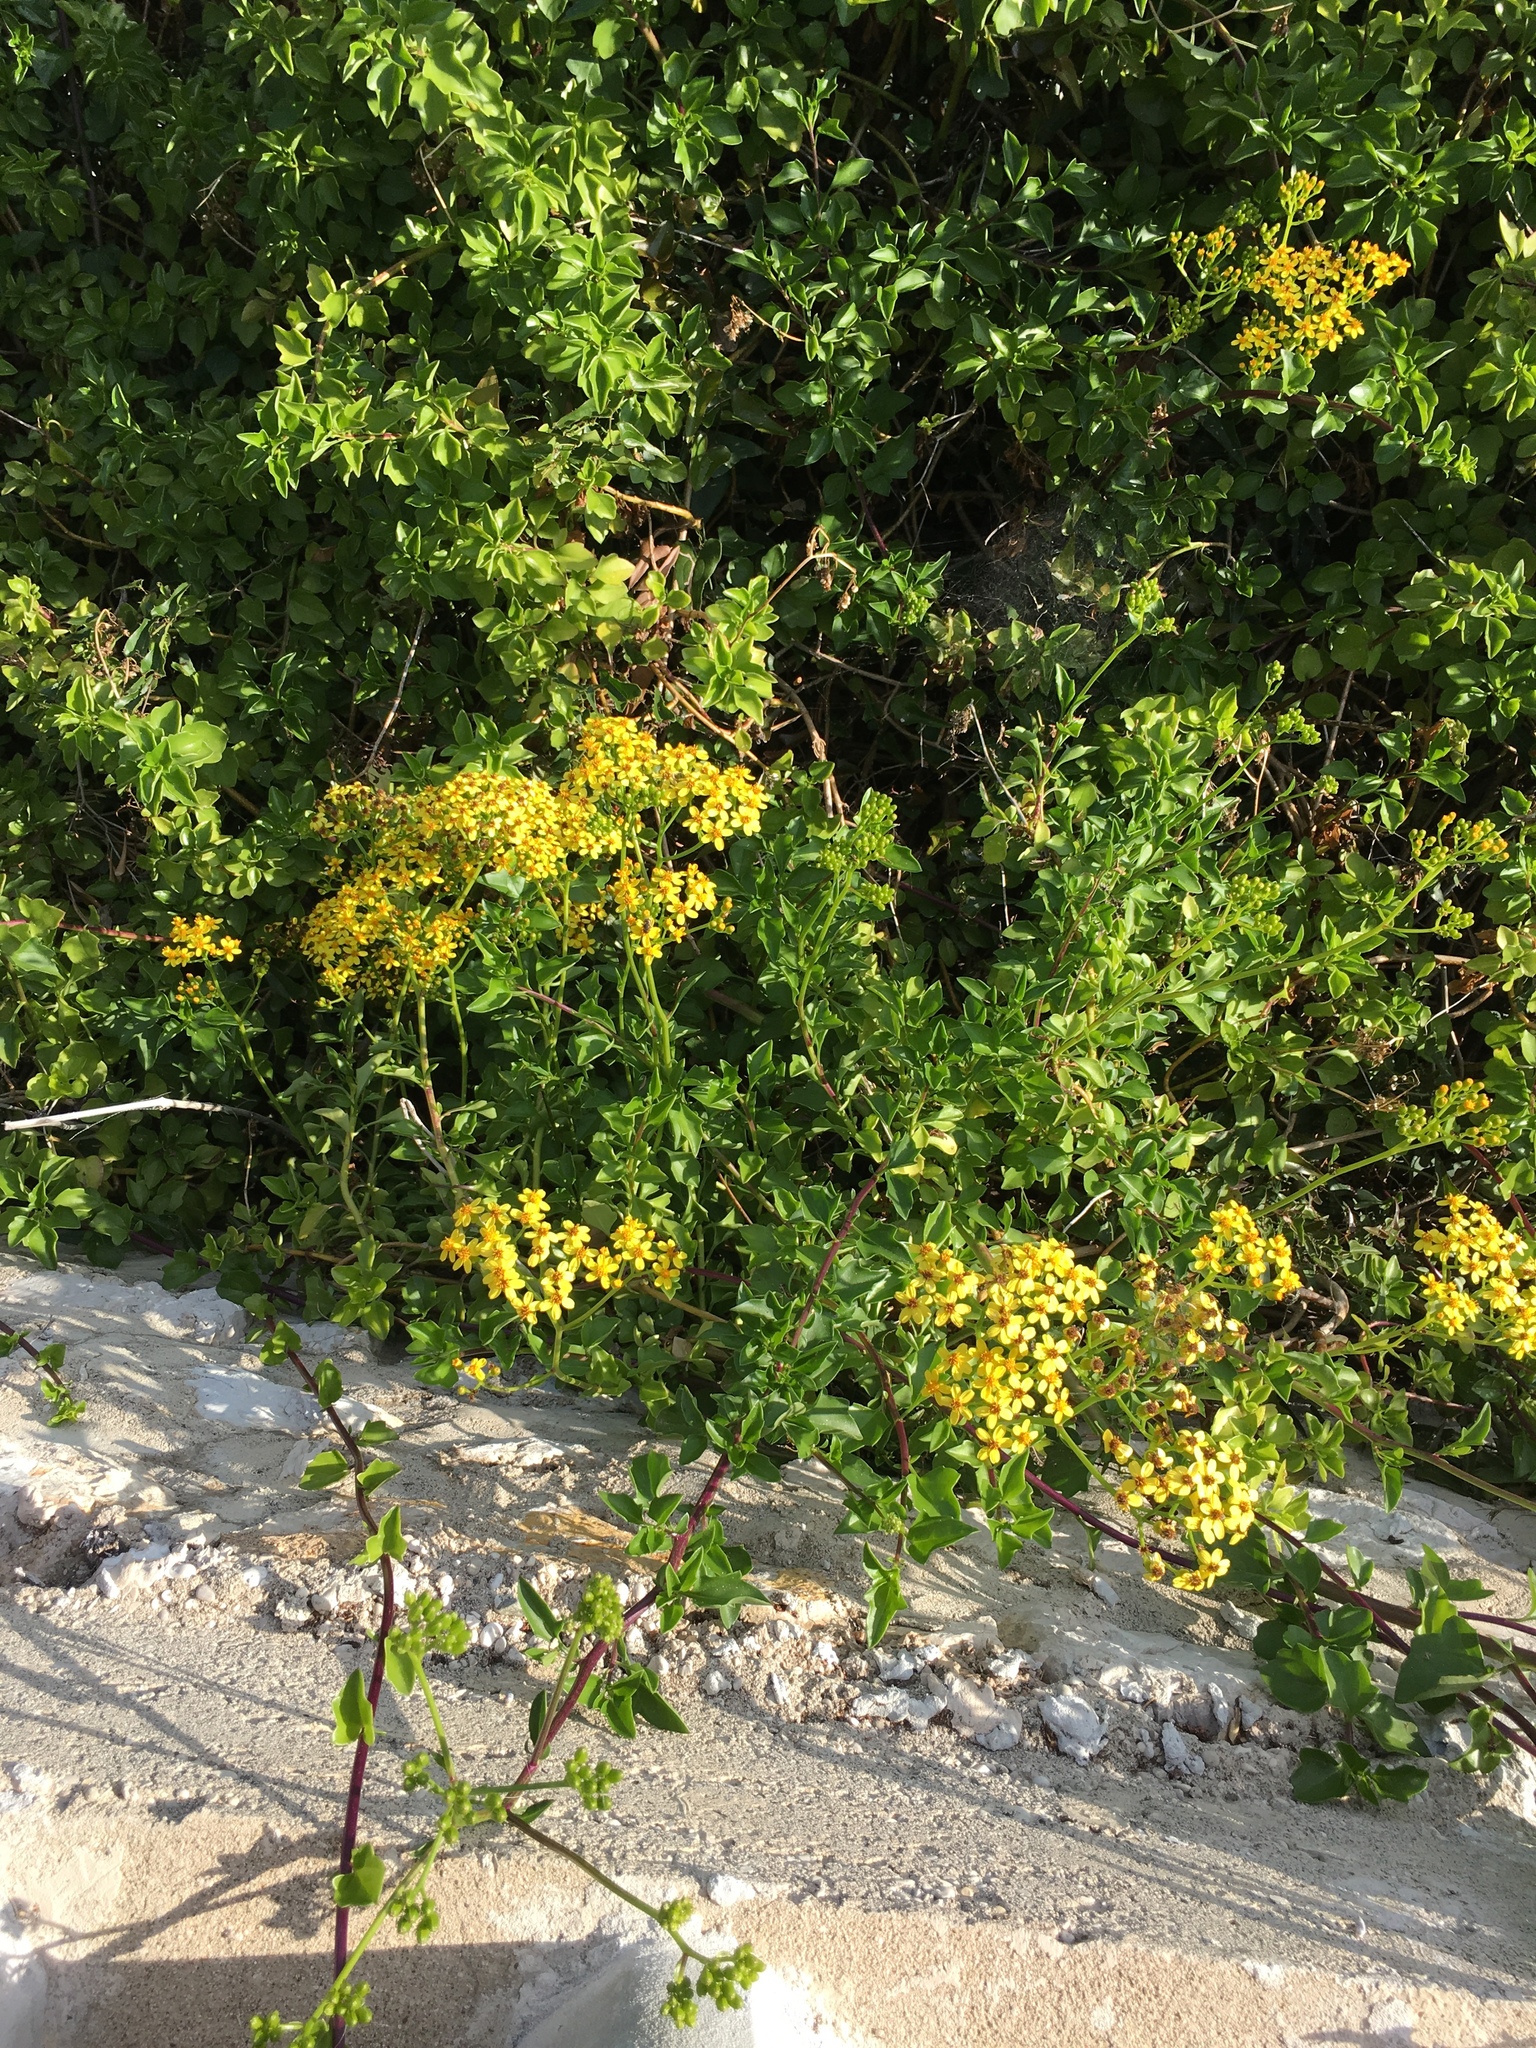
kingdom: Plantae
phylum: Tracheophyta
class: Magnoliopsida
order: Asterales
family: Asteraceae
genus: Senecio
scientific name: Senecio angulatus
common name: Climbing groundsel
